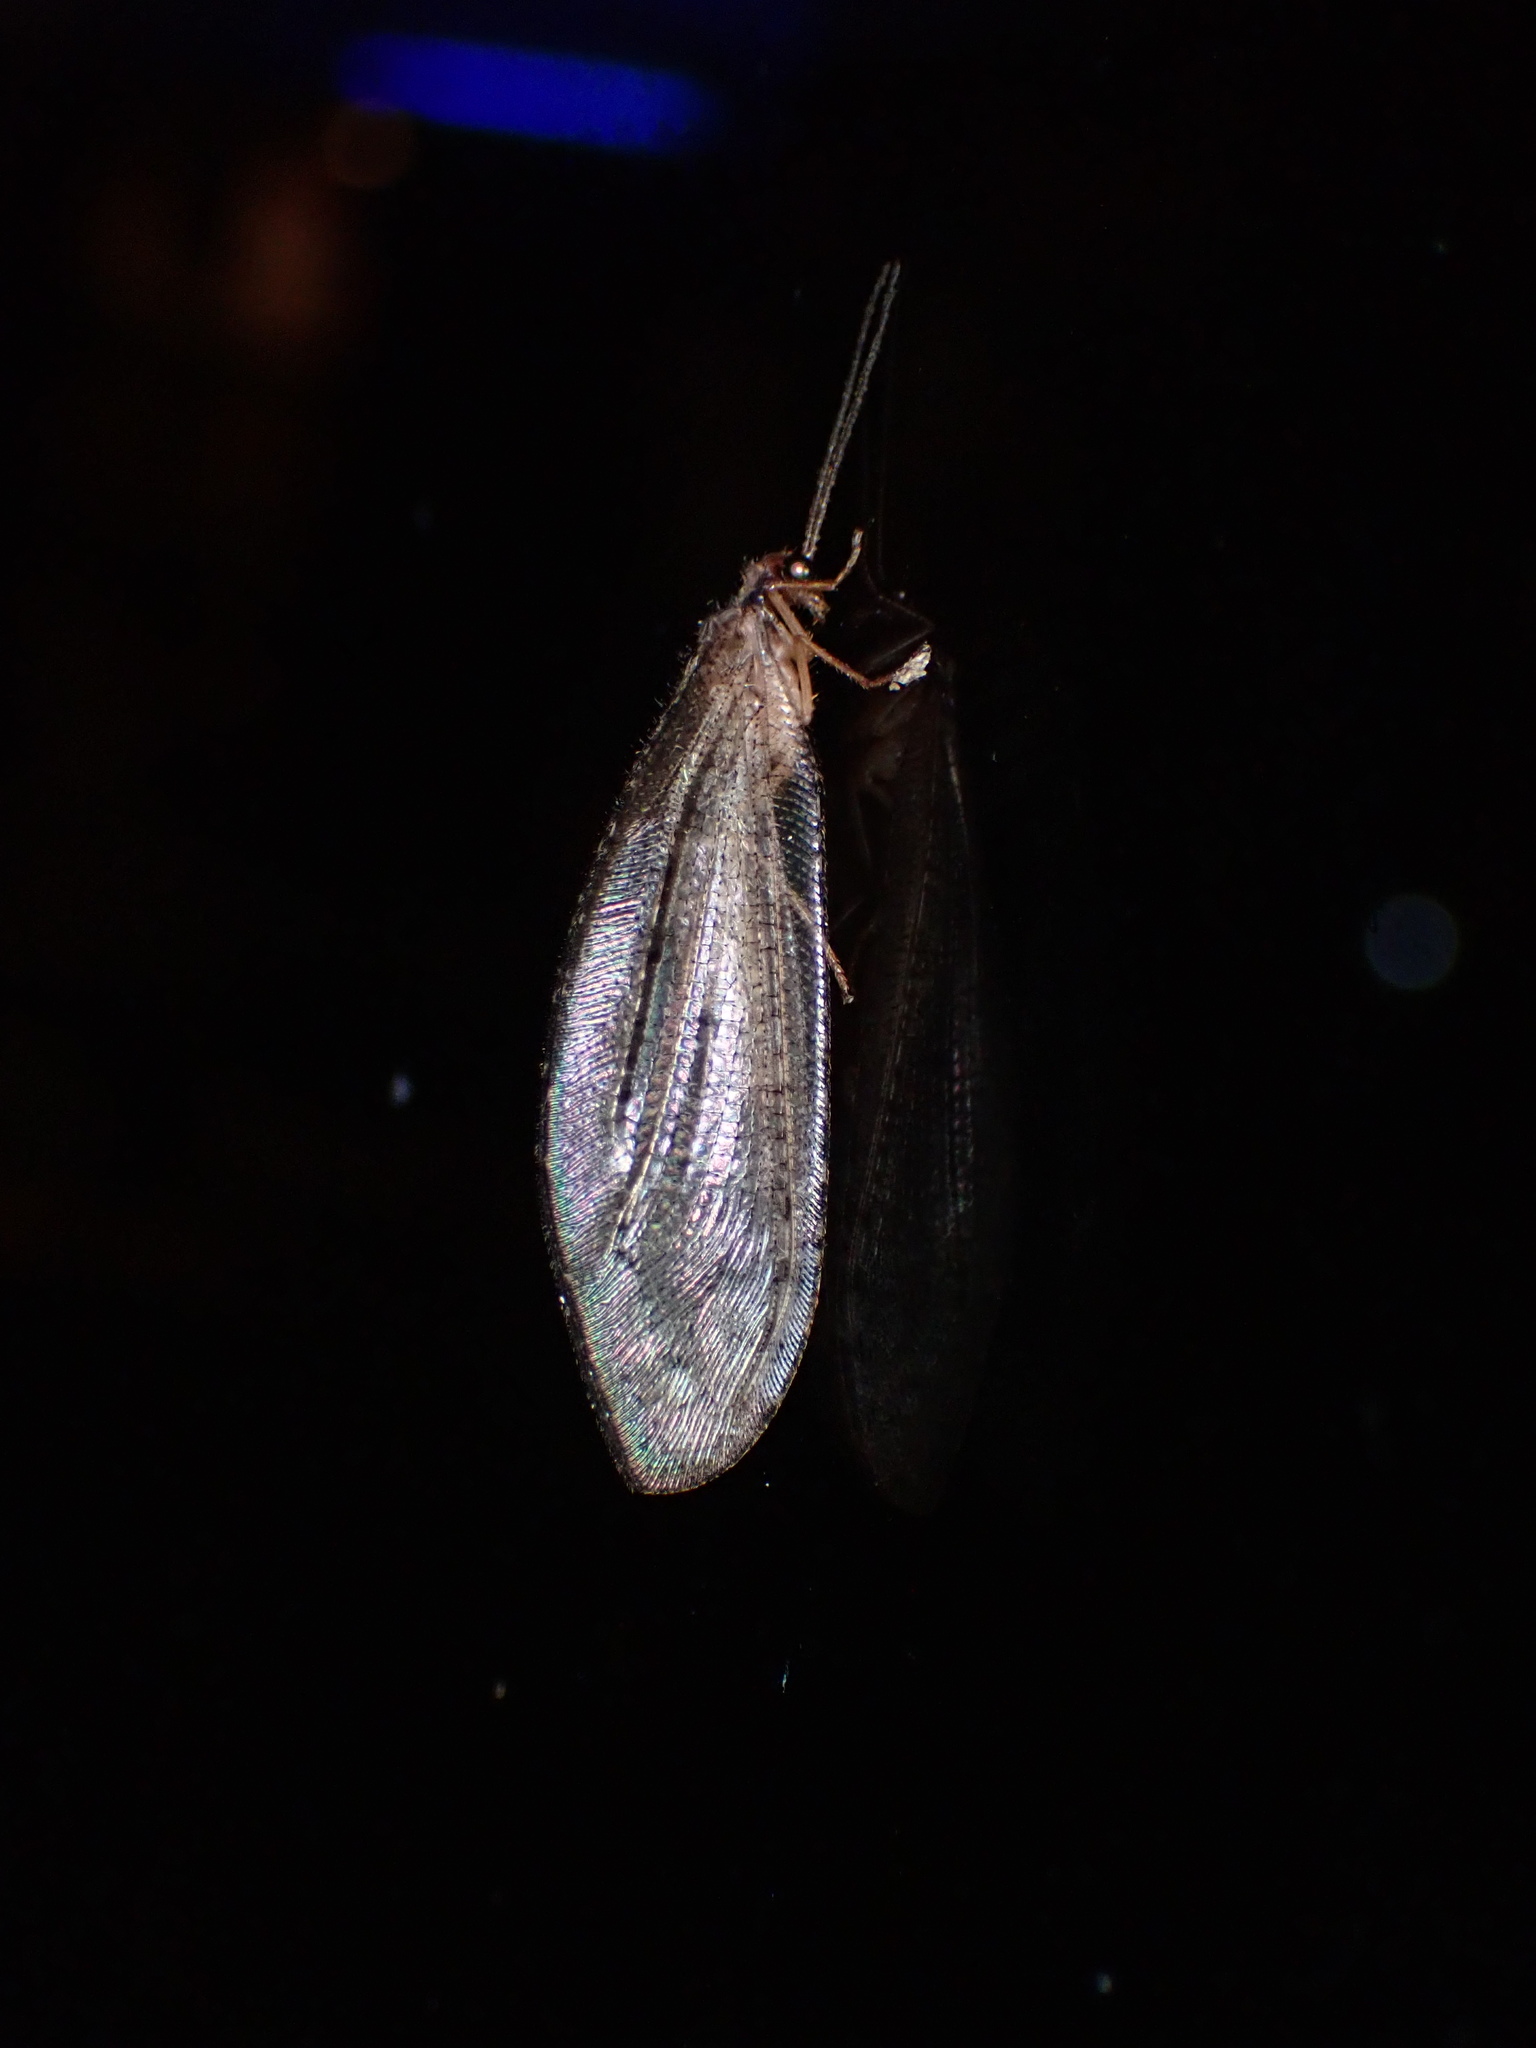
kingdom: Animalia
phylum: Arthropoda
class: Insecta
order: Neuroptera
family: Osmylidae
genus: Kempynus
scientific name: Kempynus latiusculus
